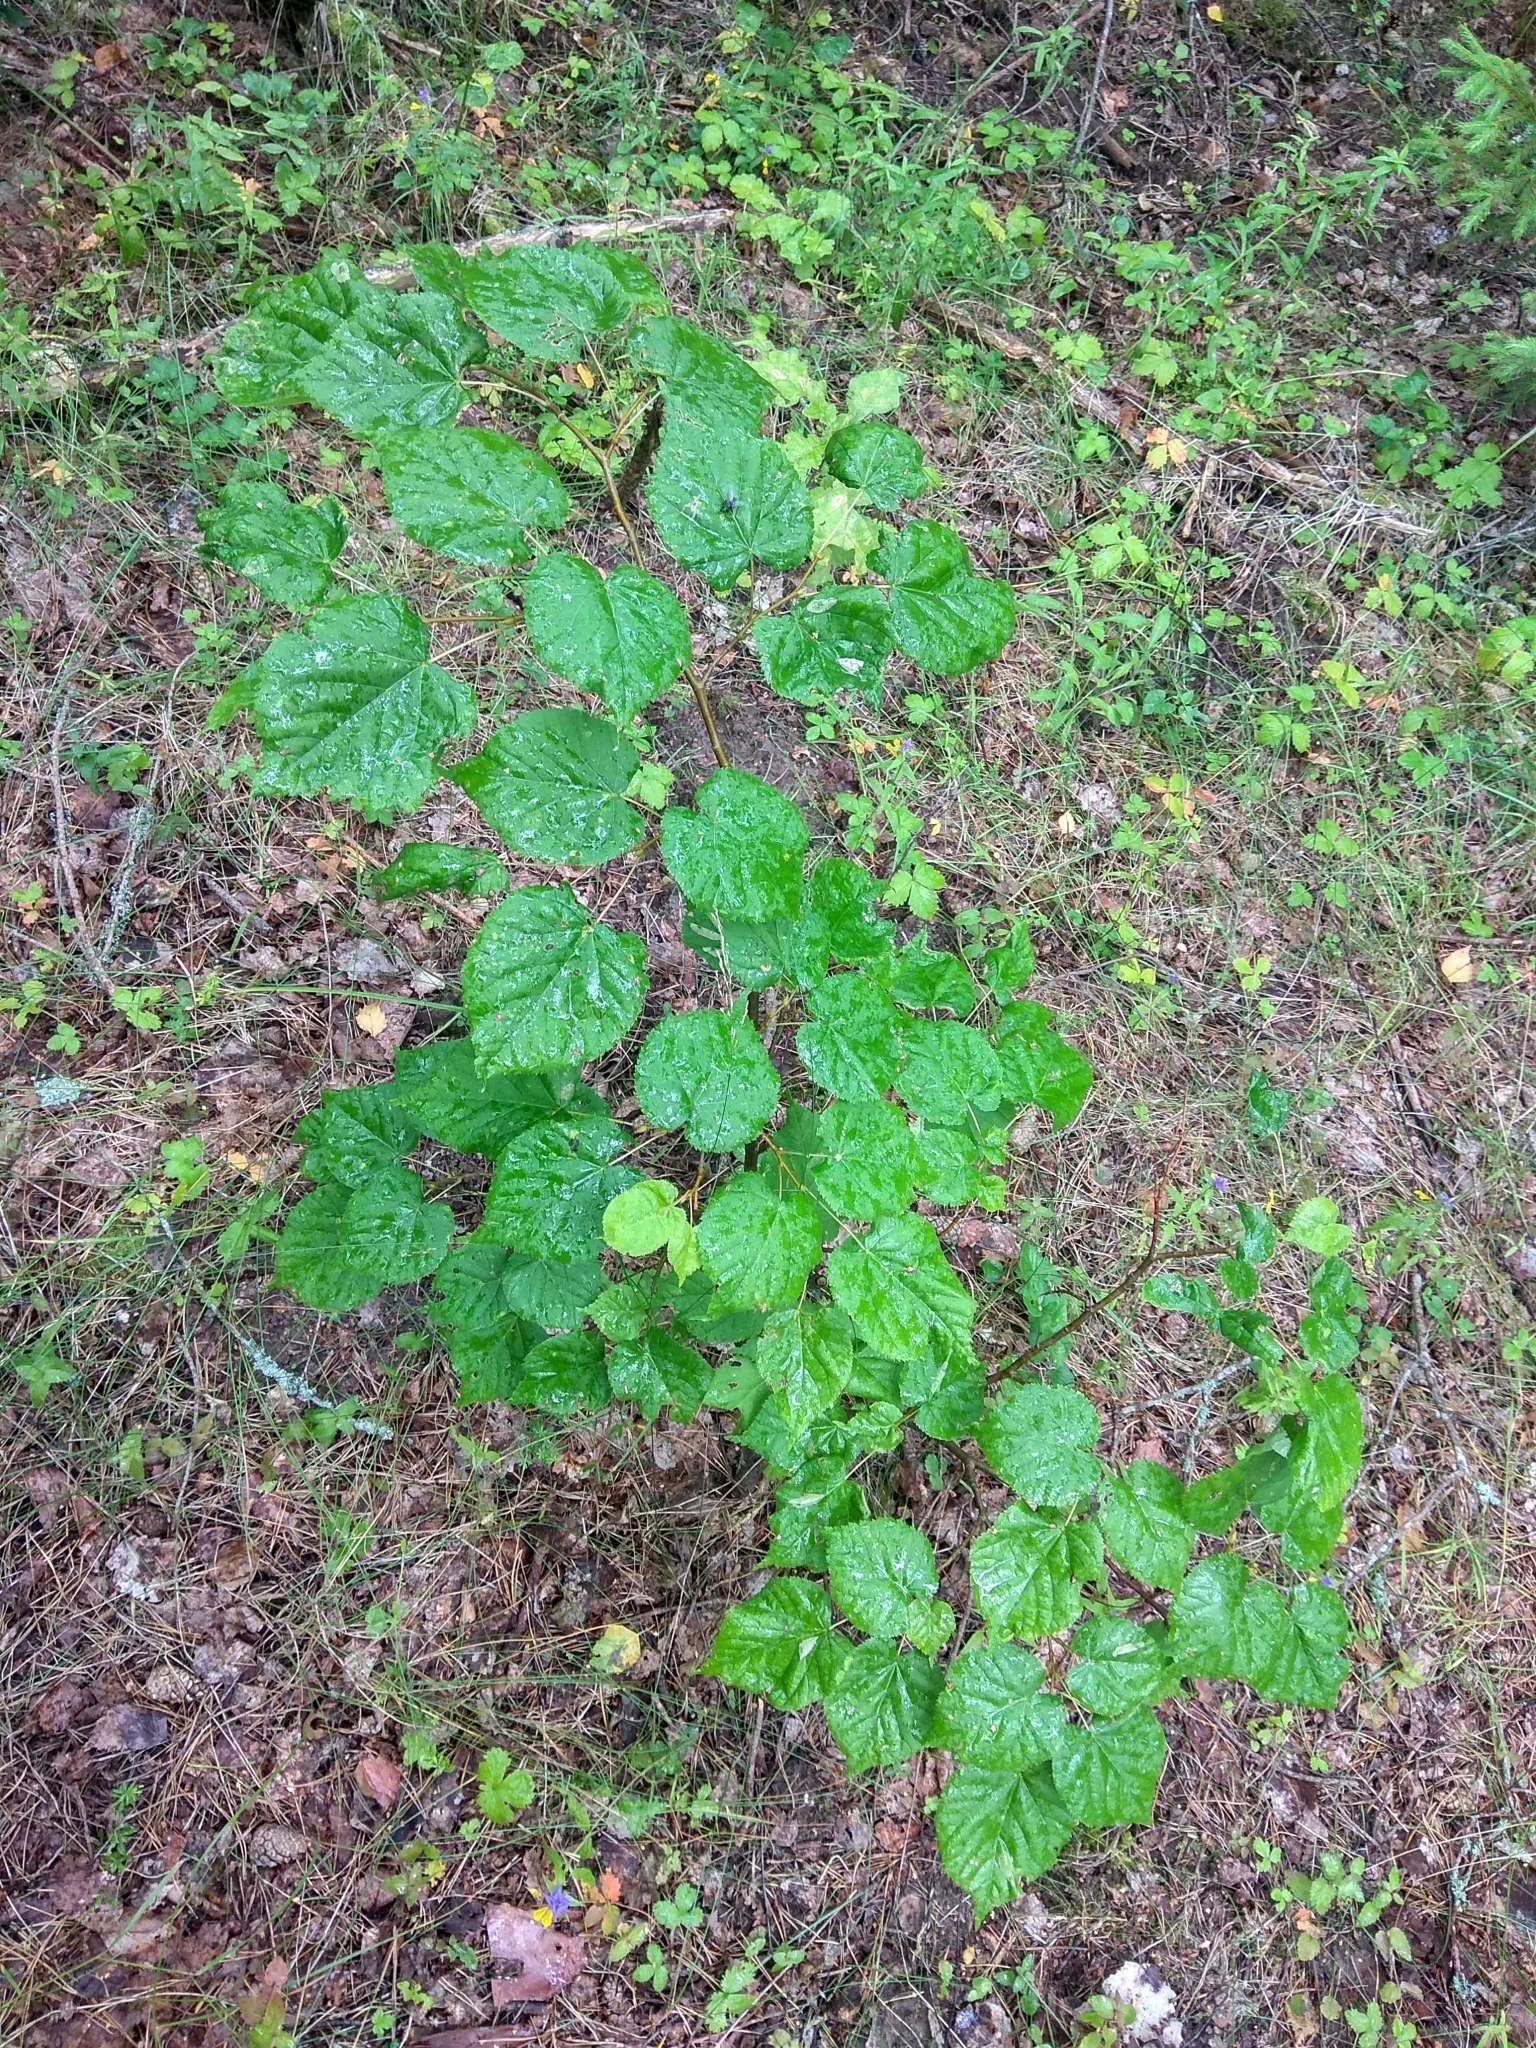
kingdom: Plantae
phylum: Tracheophyta
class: Magnoliopsida
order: Malvales
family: Malvaceae
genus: Tilia
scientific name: Tilia cordata
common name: Small-leaved lime
